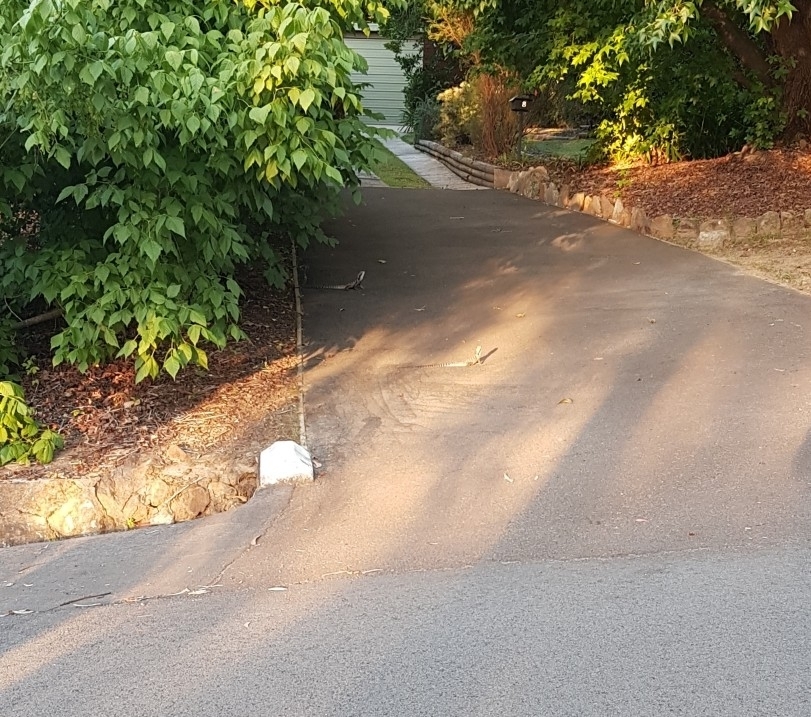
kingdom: Animalia
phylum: Chordata
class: Squamata
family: Agamidae
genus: Intellagama
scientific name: Intellagama lesueurii
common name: Eastern water dragon
